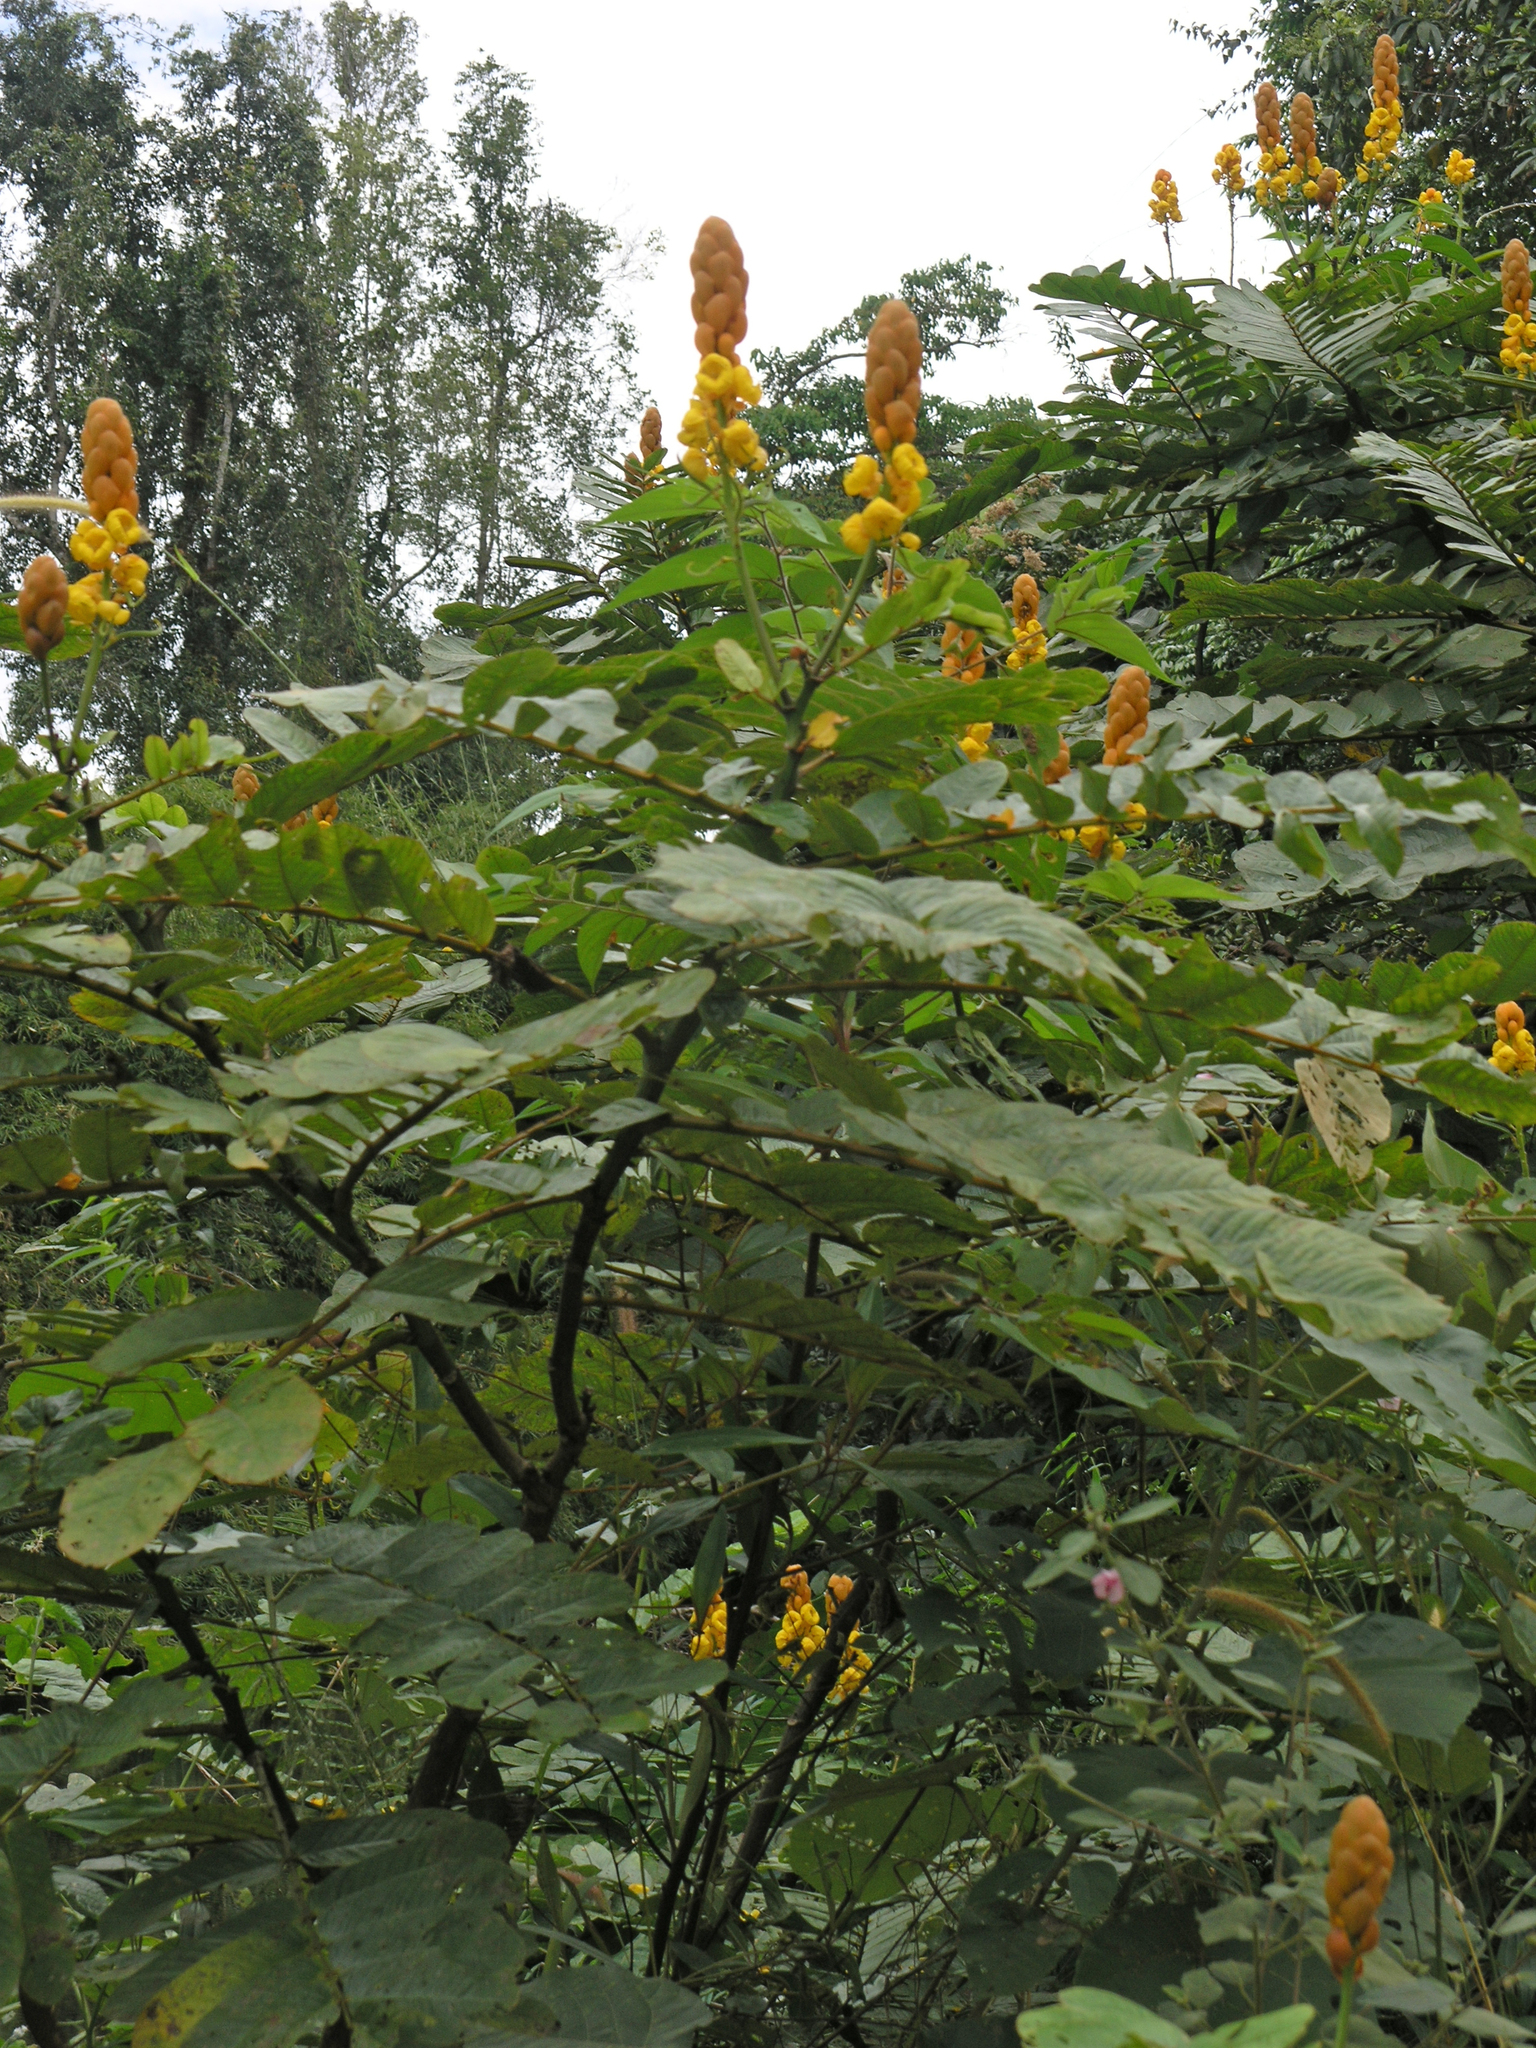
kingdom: Plantae
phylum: Tracheophyta
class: Magnoliopsida
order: Fabales
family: Fabaceae
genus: Senna
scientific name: Senna alata
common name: Emperor's candlesticks
